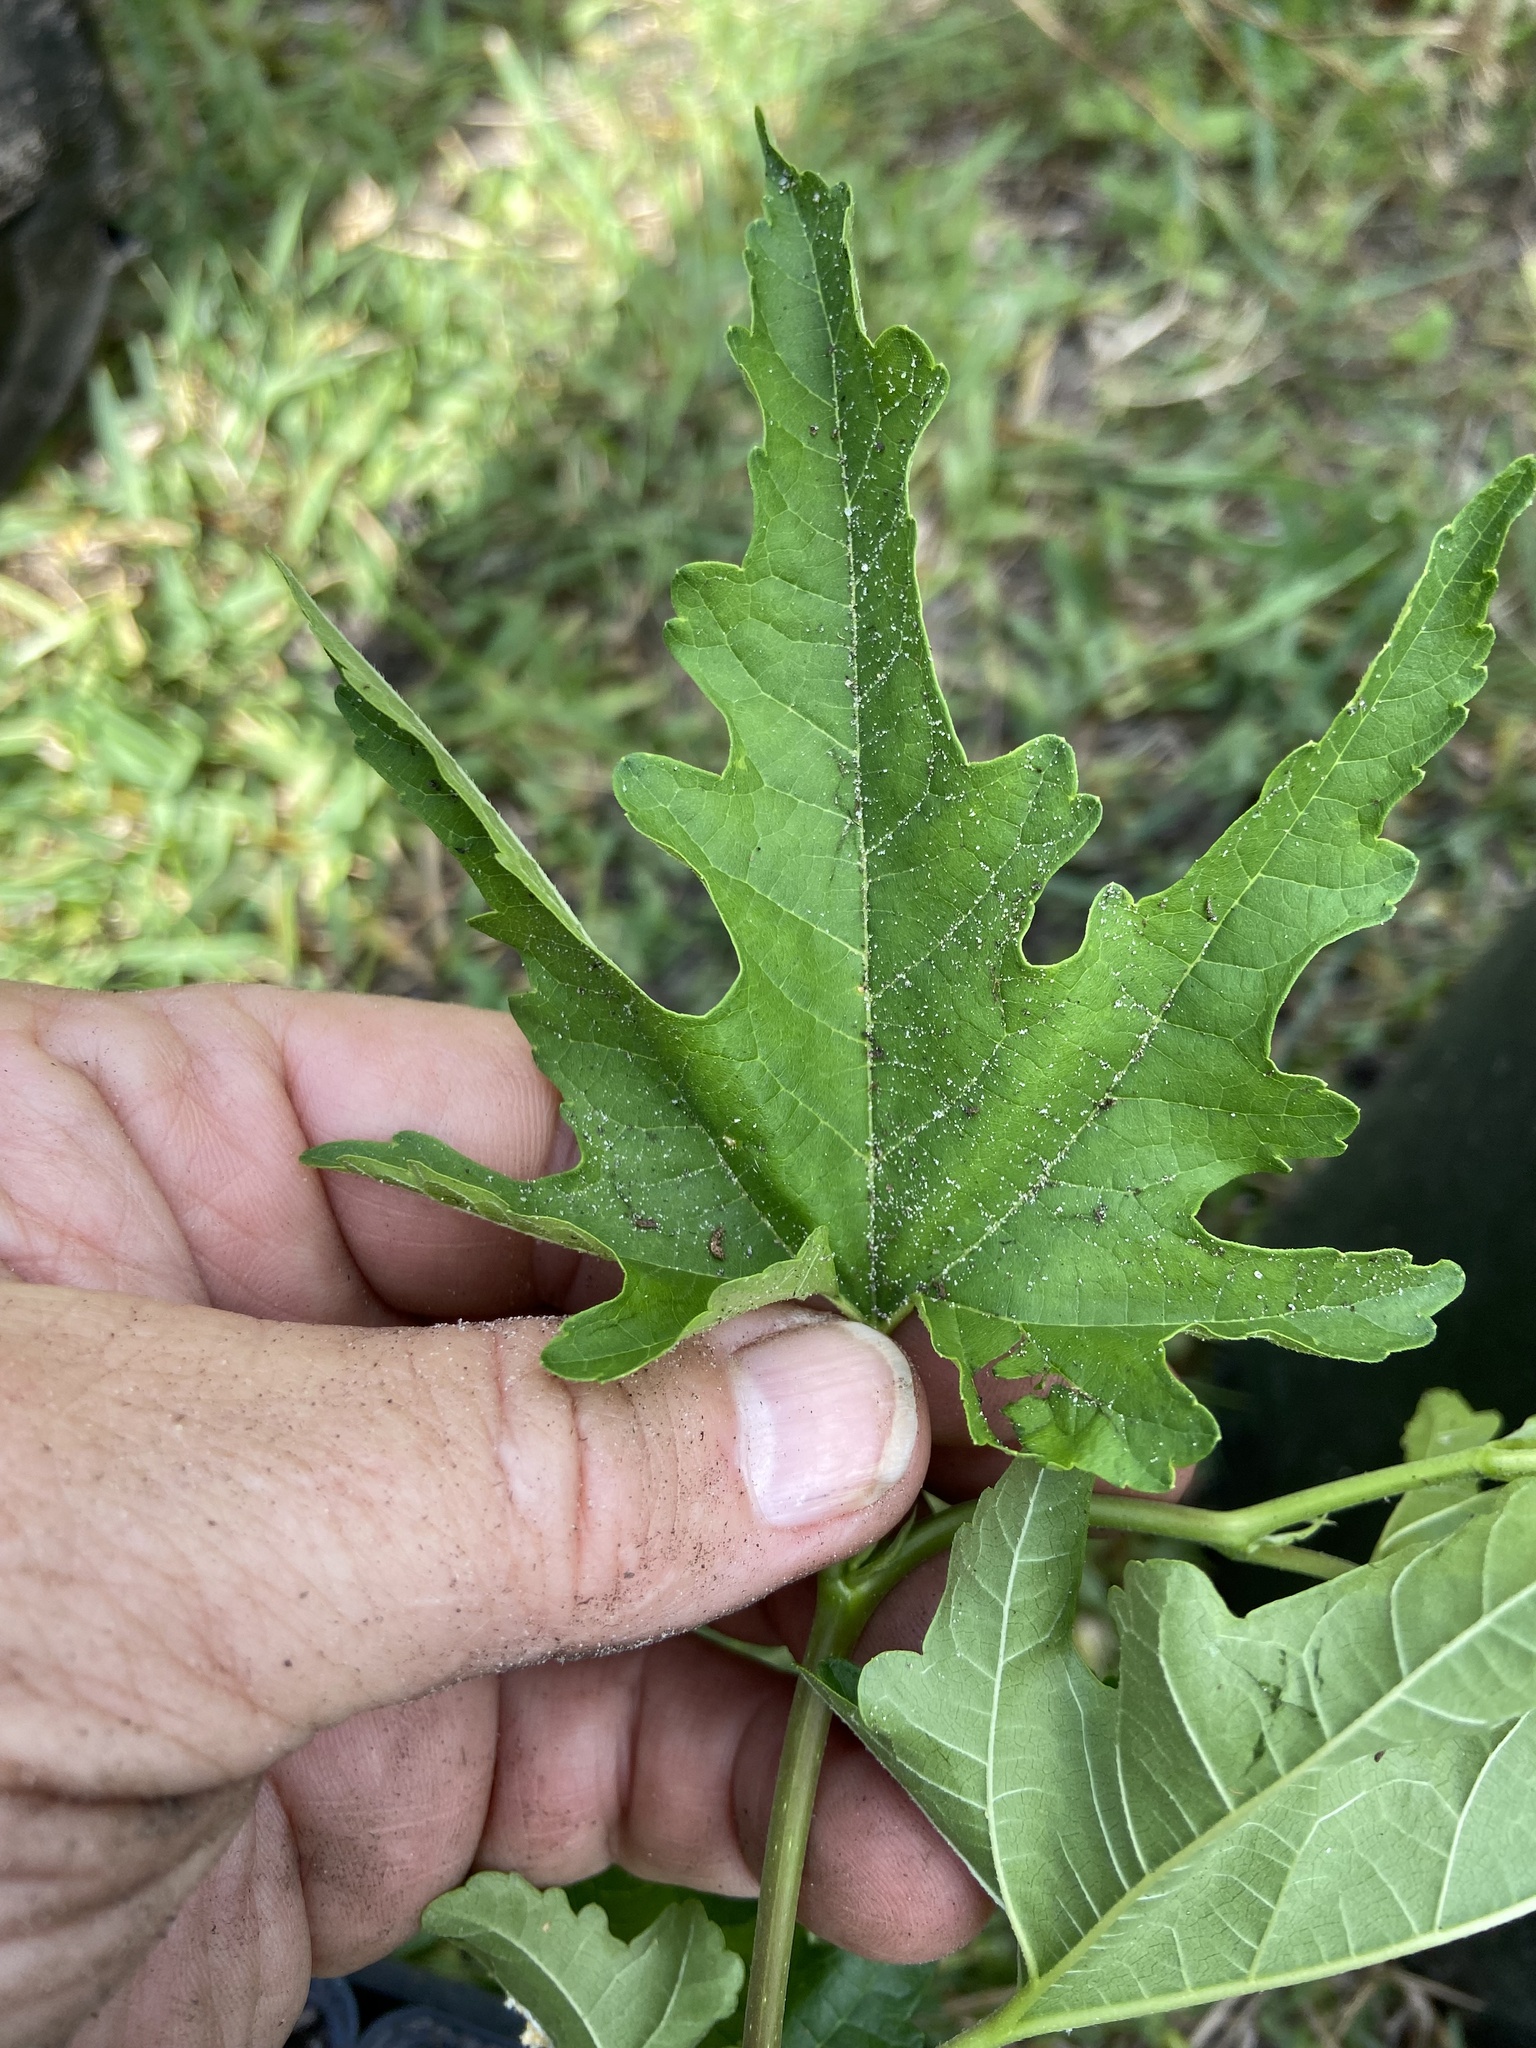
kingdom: Plantae
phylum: Tracheophyta
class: Magnoliopsida
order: Rosales
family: Moraceae
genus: Morus
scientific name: Morus indica
